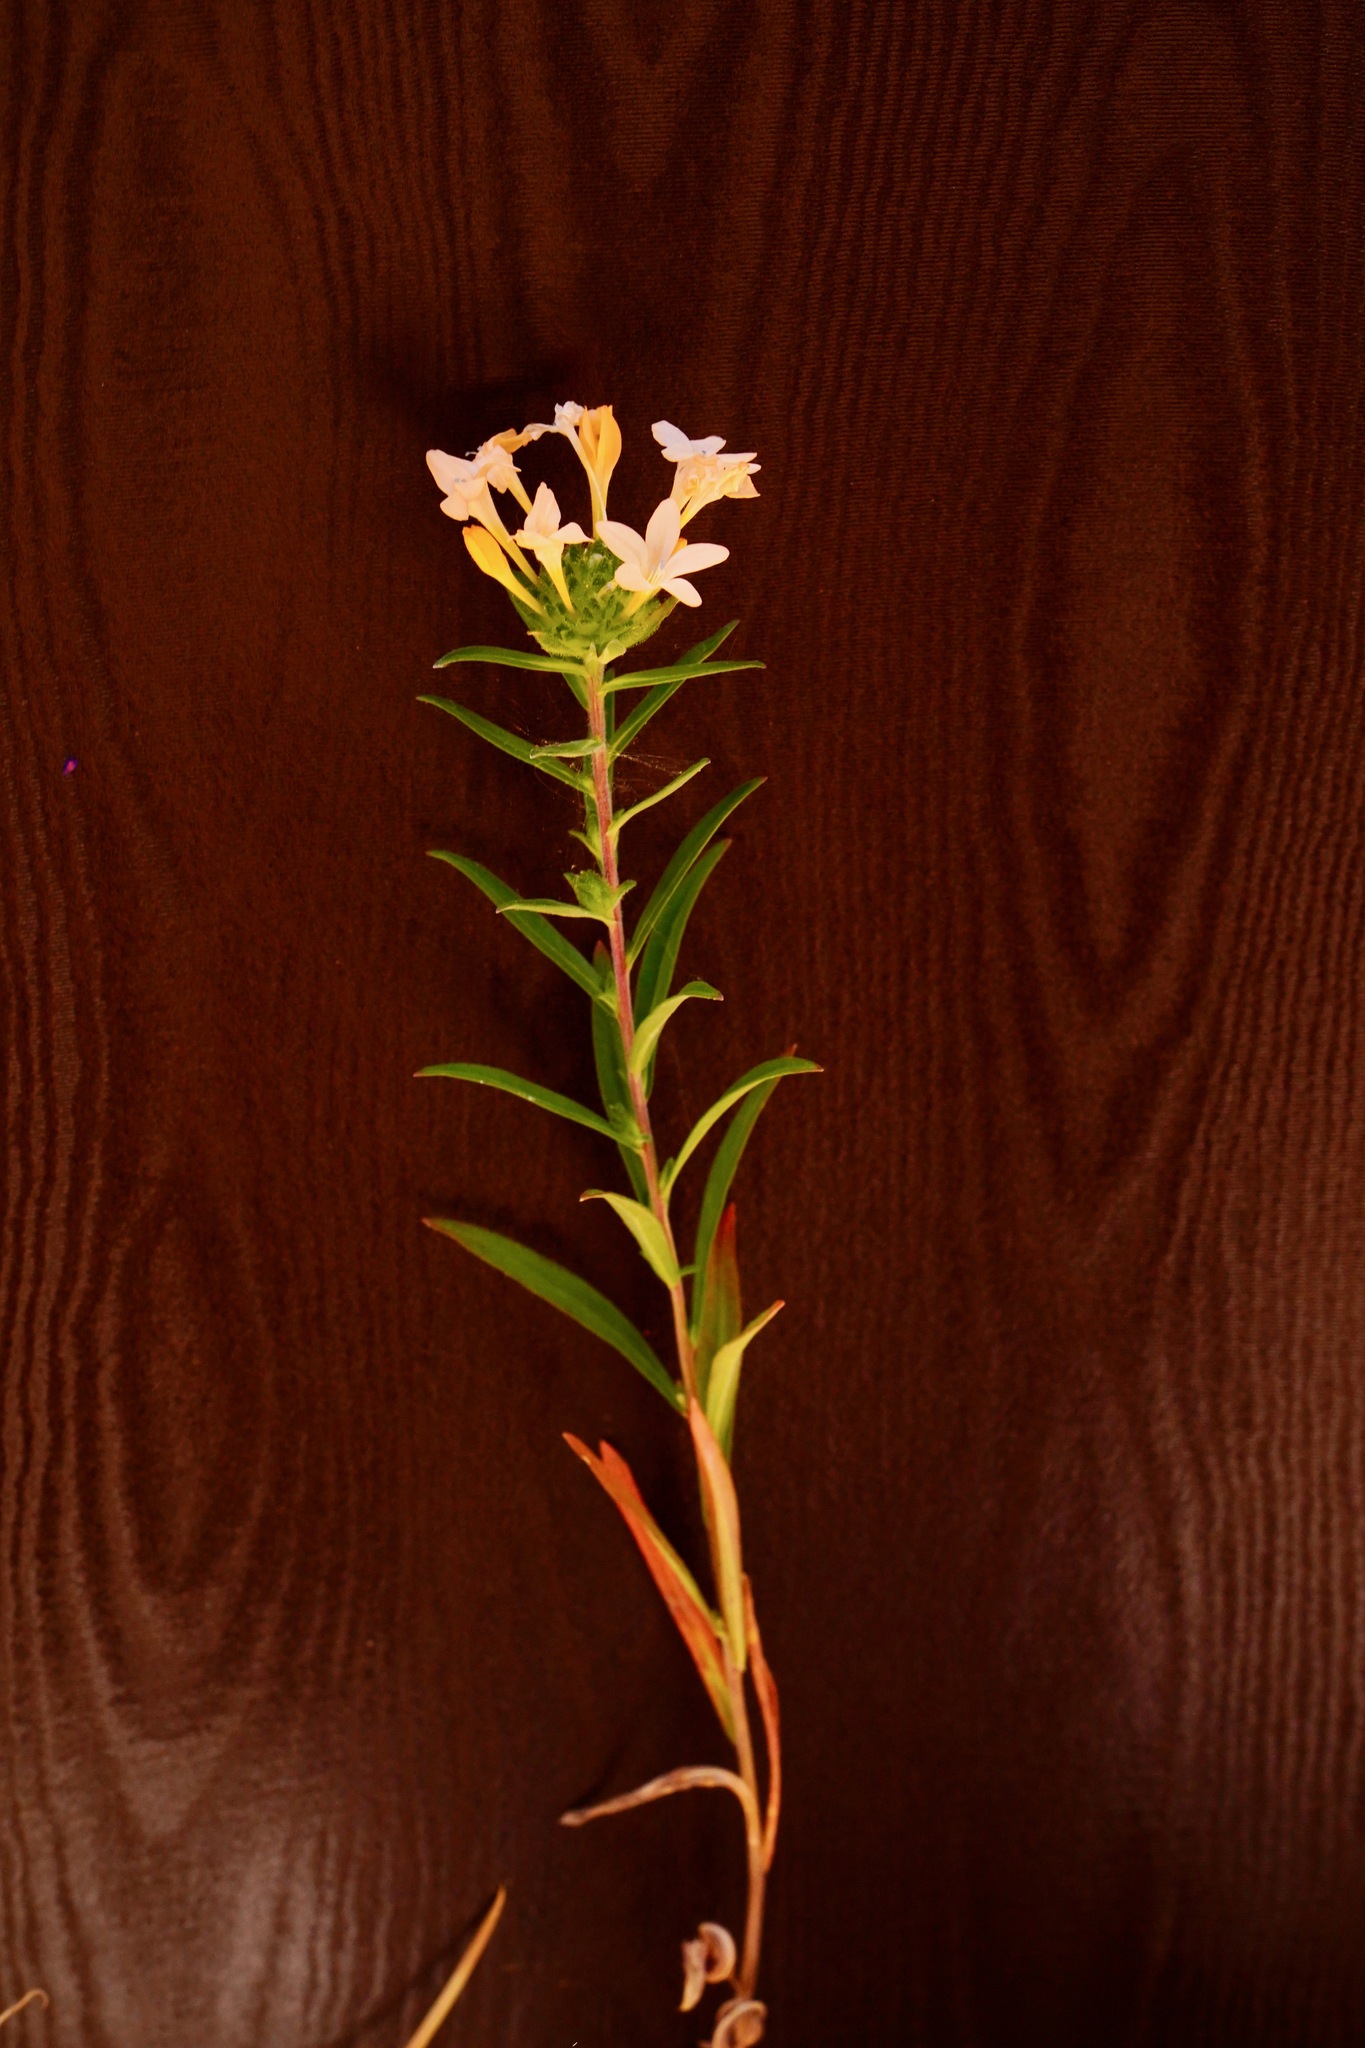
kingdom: Plantae
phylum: Tracheophyta
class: Magnoliopsida
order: Ericales
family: Polemoniaceae
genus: Collomia
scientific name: Collomia grandiflora
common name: California strawflower
